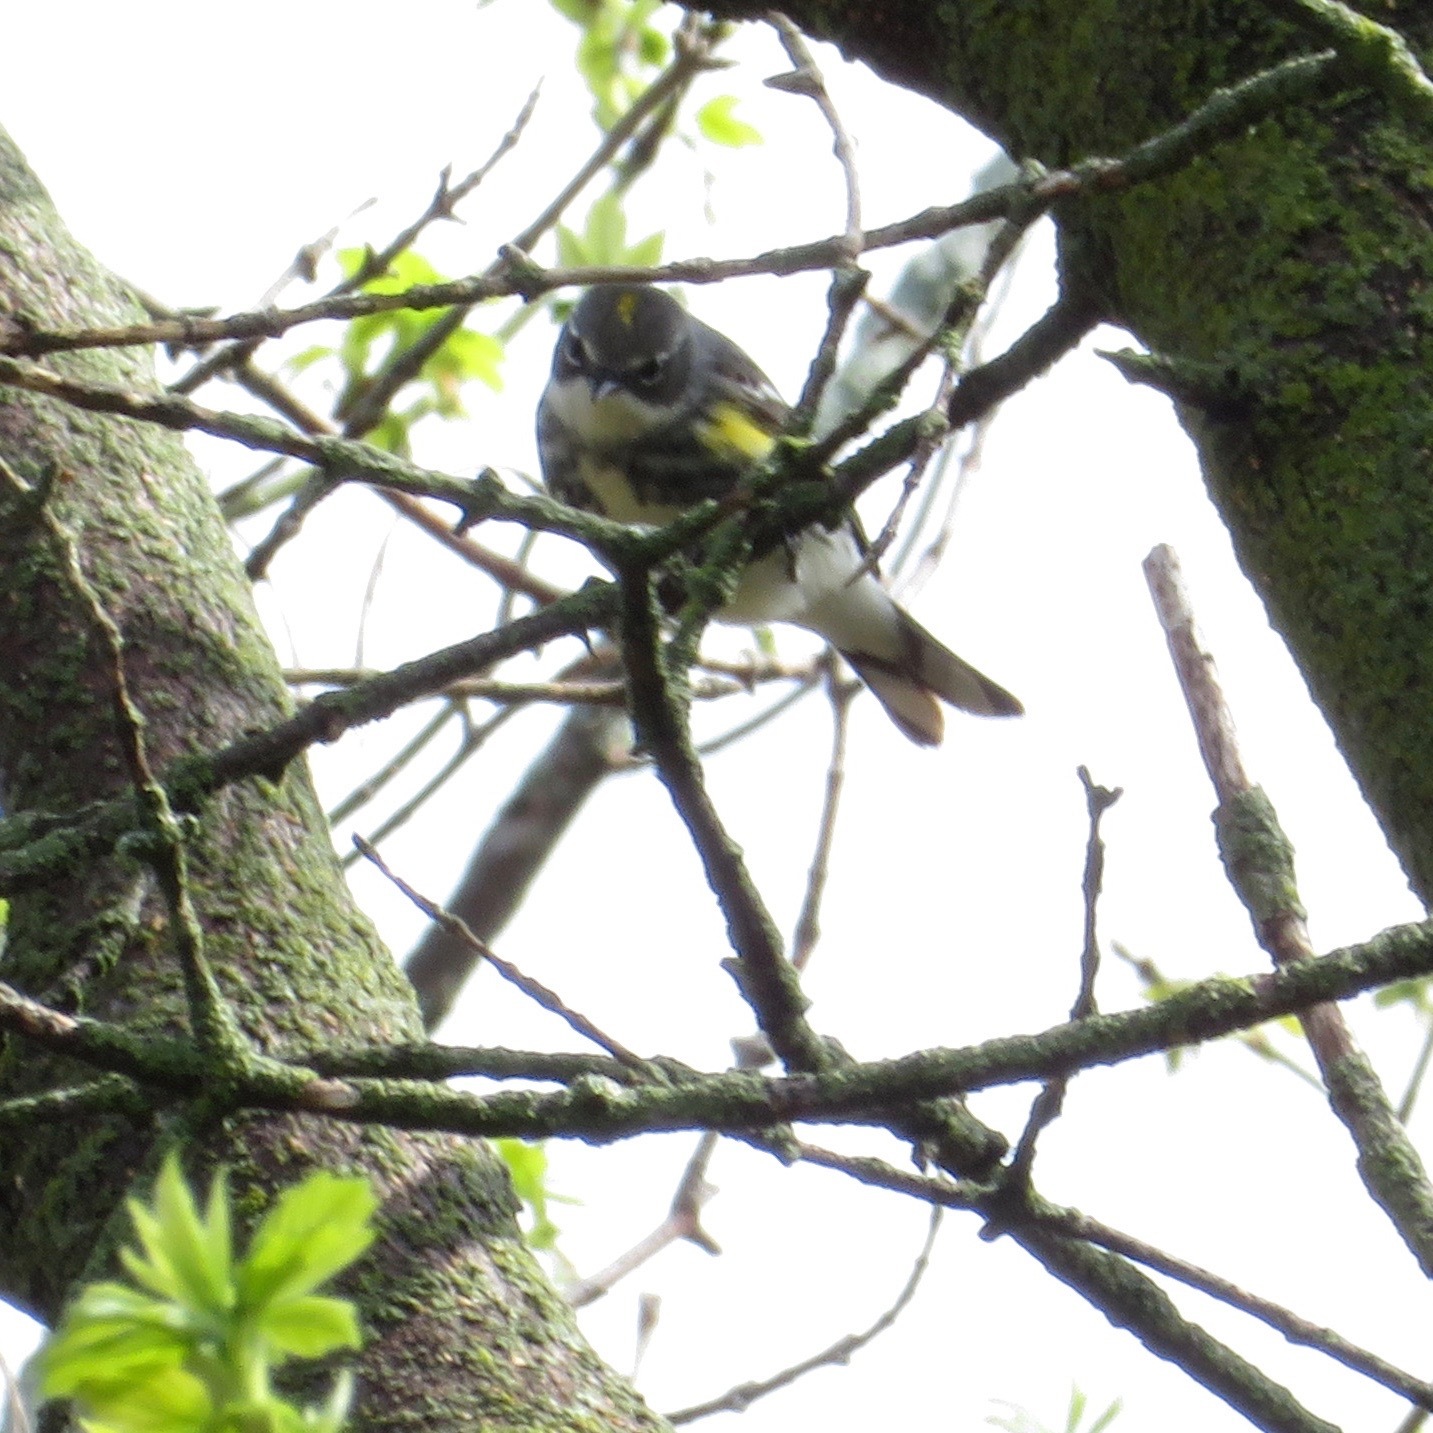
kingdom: Animalia
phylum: Chordata
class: Aves
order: Passeriformes
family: Parulidae
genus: Setophaga
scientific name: Setophaga coronata
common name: Myrtle warbler
